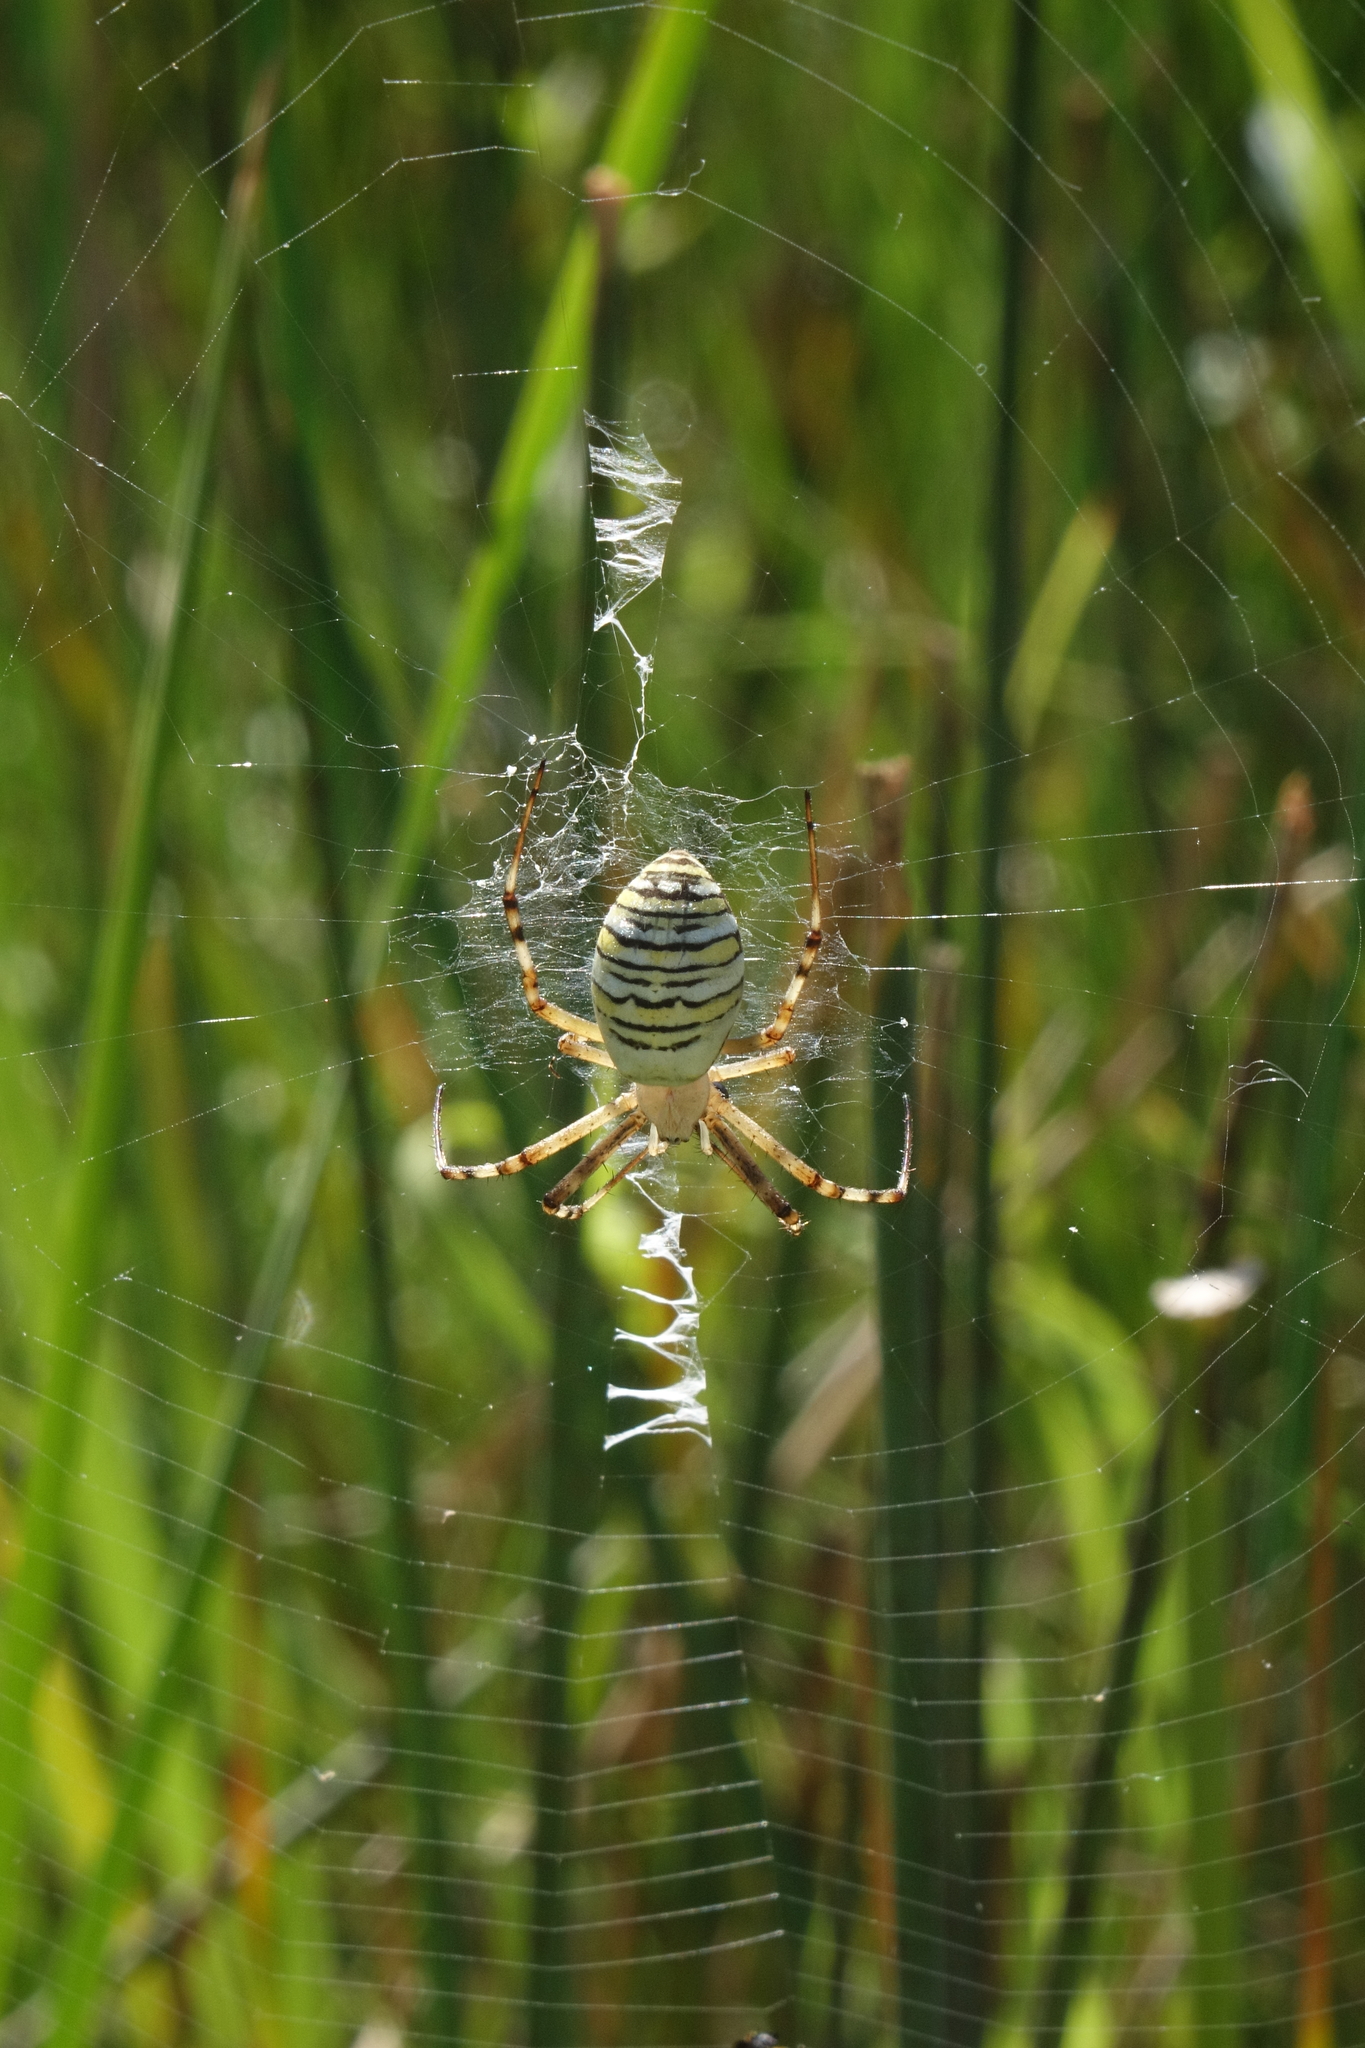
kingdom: Animalia
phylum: Arthropoda
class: Arachnida
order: Araneae
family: Araneidae
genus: Argiope
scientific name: Argiope bruennichi
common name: Wasp spider
